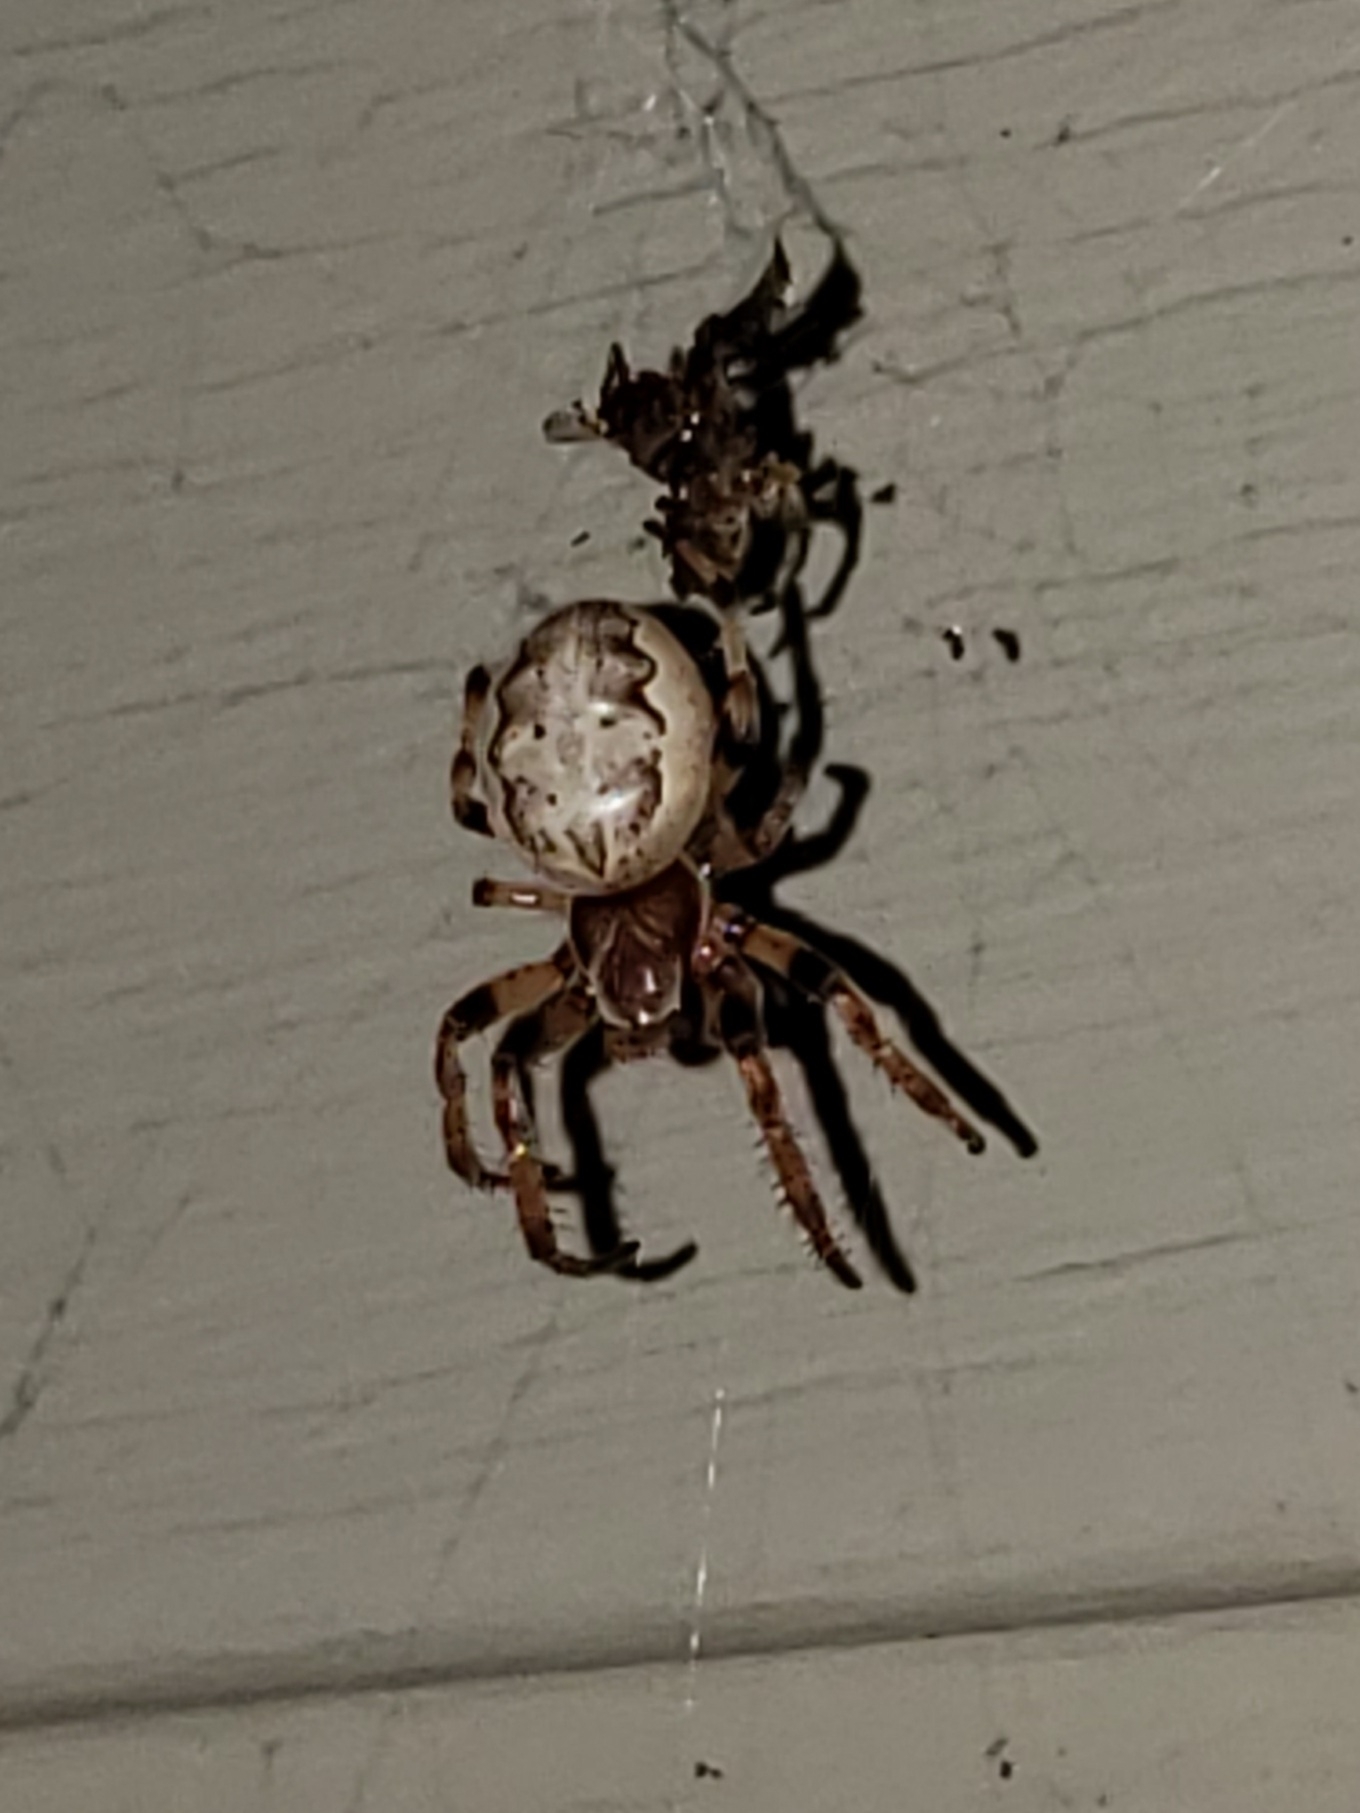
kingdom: Animalia
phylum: Arthropoda
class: Arachnida
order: Araneae
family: Araneidae
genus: Larinioides
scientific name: Larinioides cornutus
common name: Furrow orbweaver
